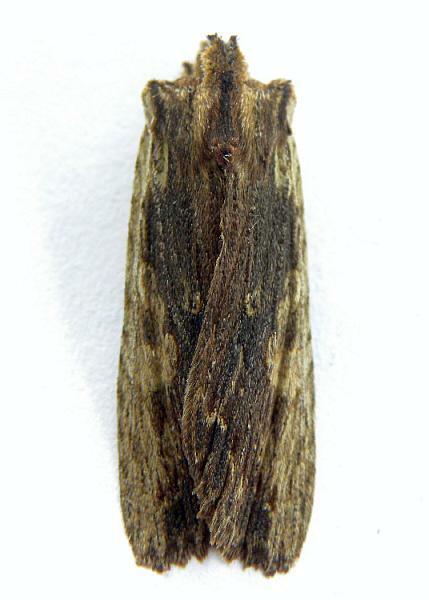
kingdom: Animalia
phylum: Arthropoda
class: Insecta
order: Lepidoptera
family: Noctuidae
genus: Lithophane
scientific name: Lithophane hemina
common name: Hemina pinion moth
